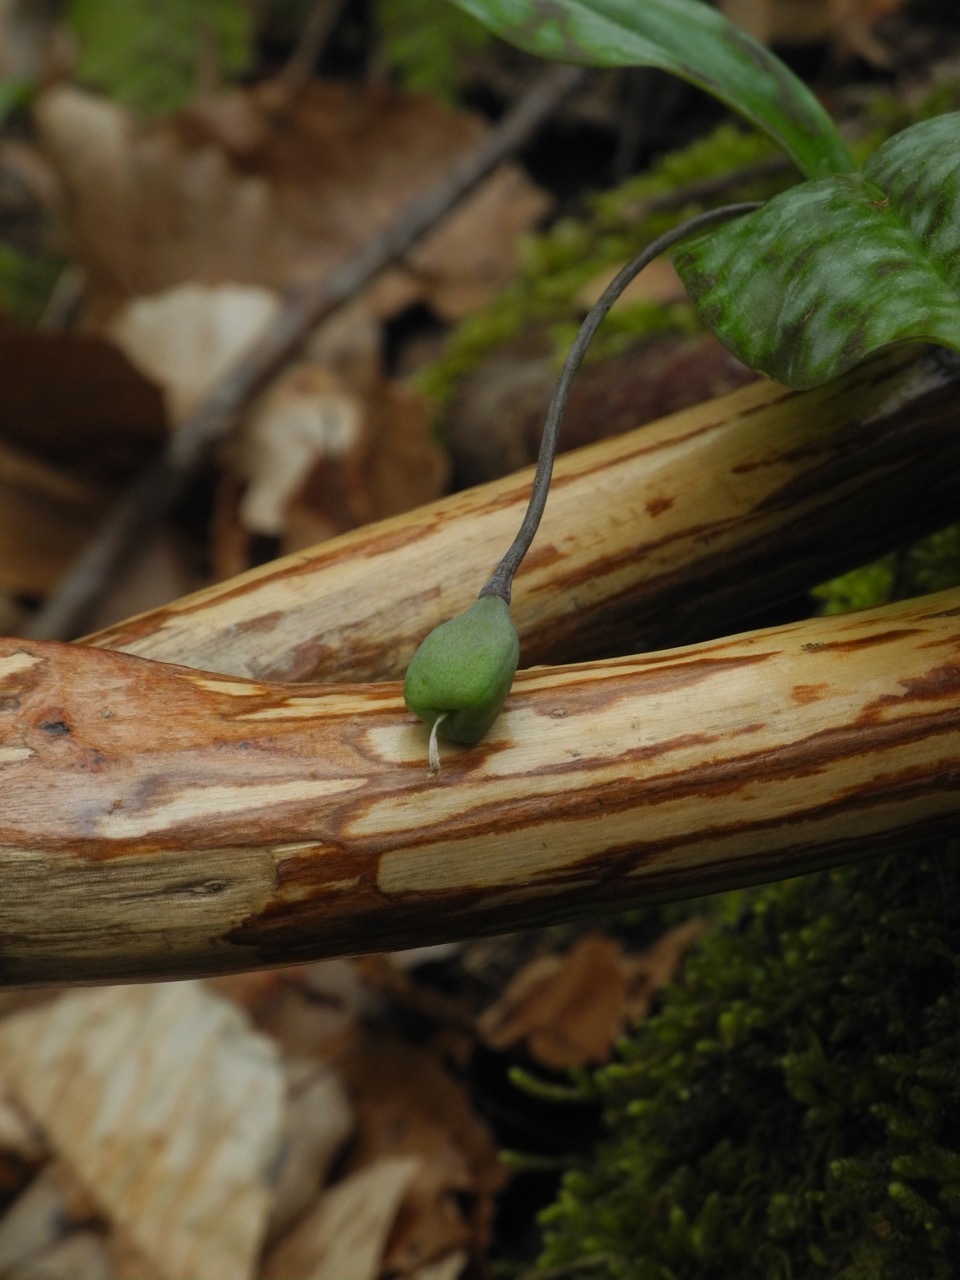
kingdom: Plantae
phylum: Tracheophyta
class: Liliopsida
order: Liliales
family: Liliaceae
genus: Erythronium
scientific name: Erythronium umbilicatum
